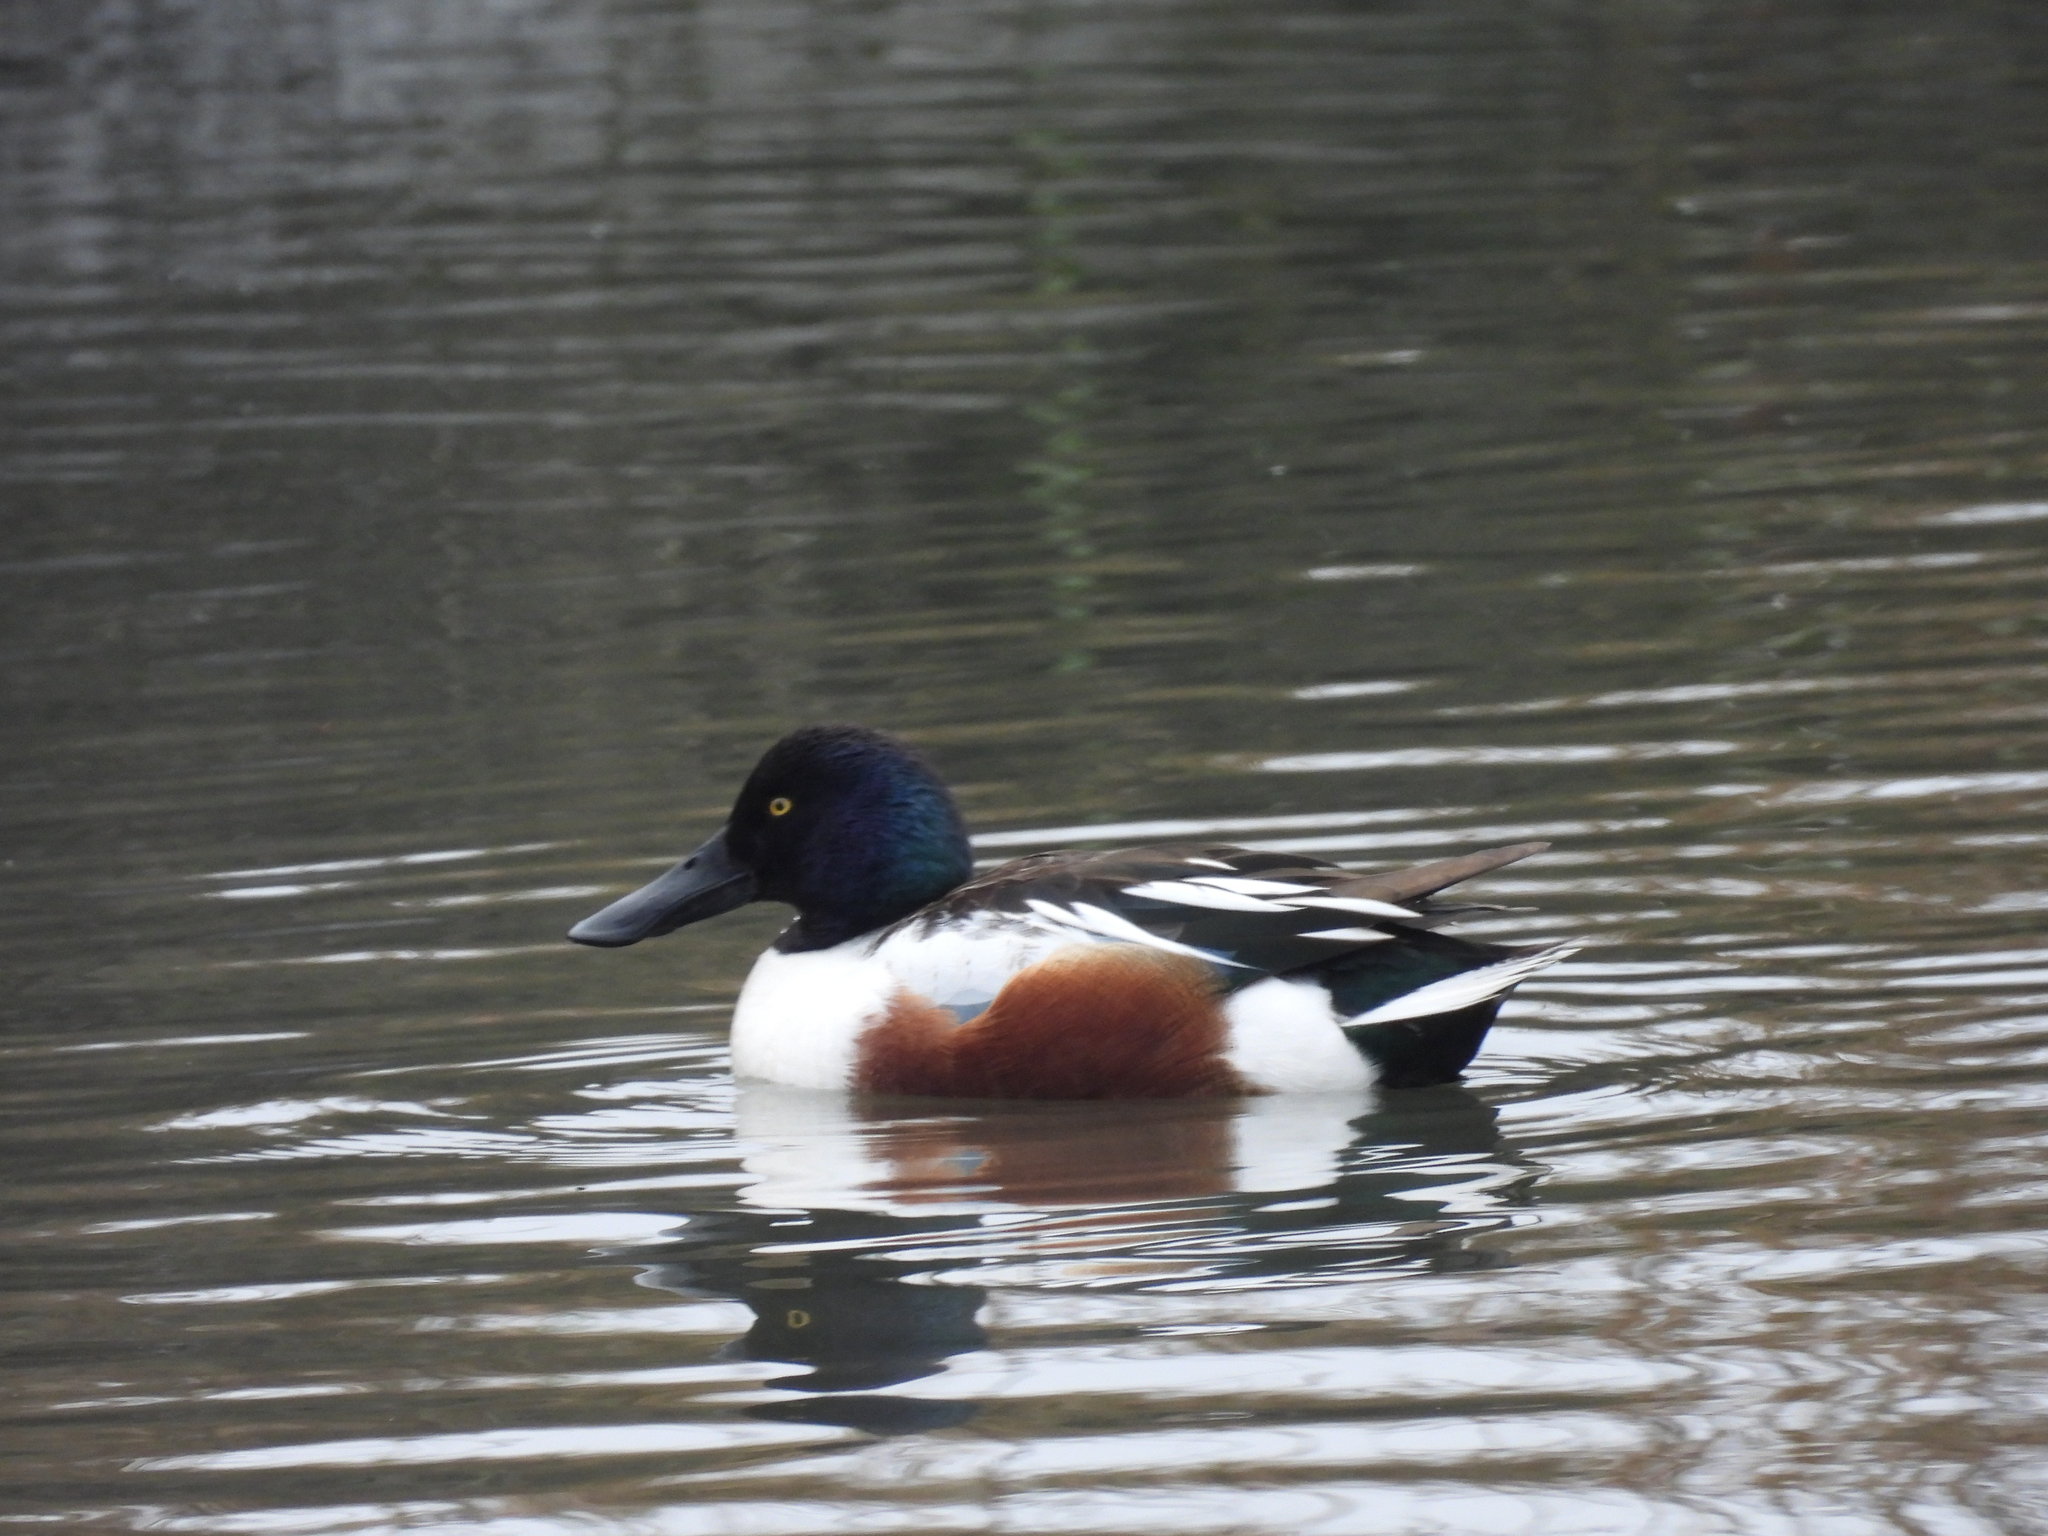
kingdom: Animalia
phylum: Chordata
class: Aves
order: Anseriformes
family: Anatidae
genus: Spatula
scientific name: Spatula clypeata
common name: Northern shoveler
